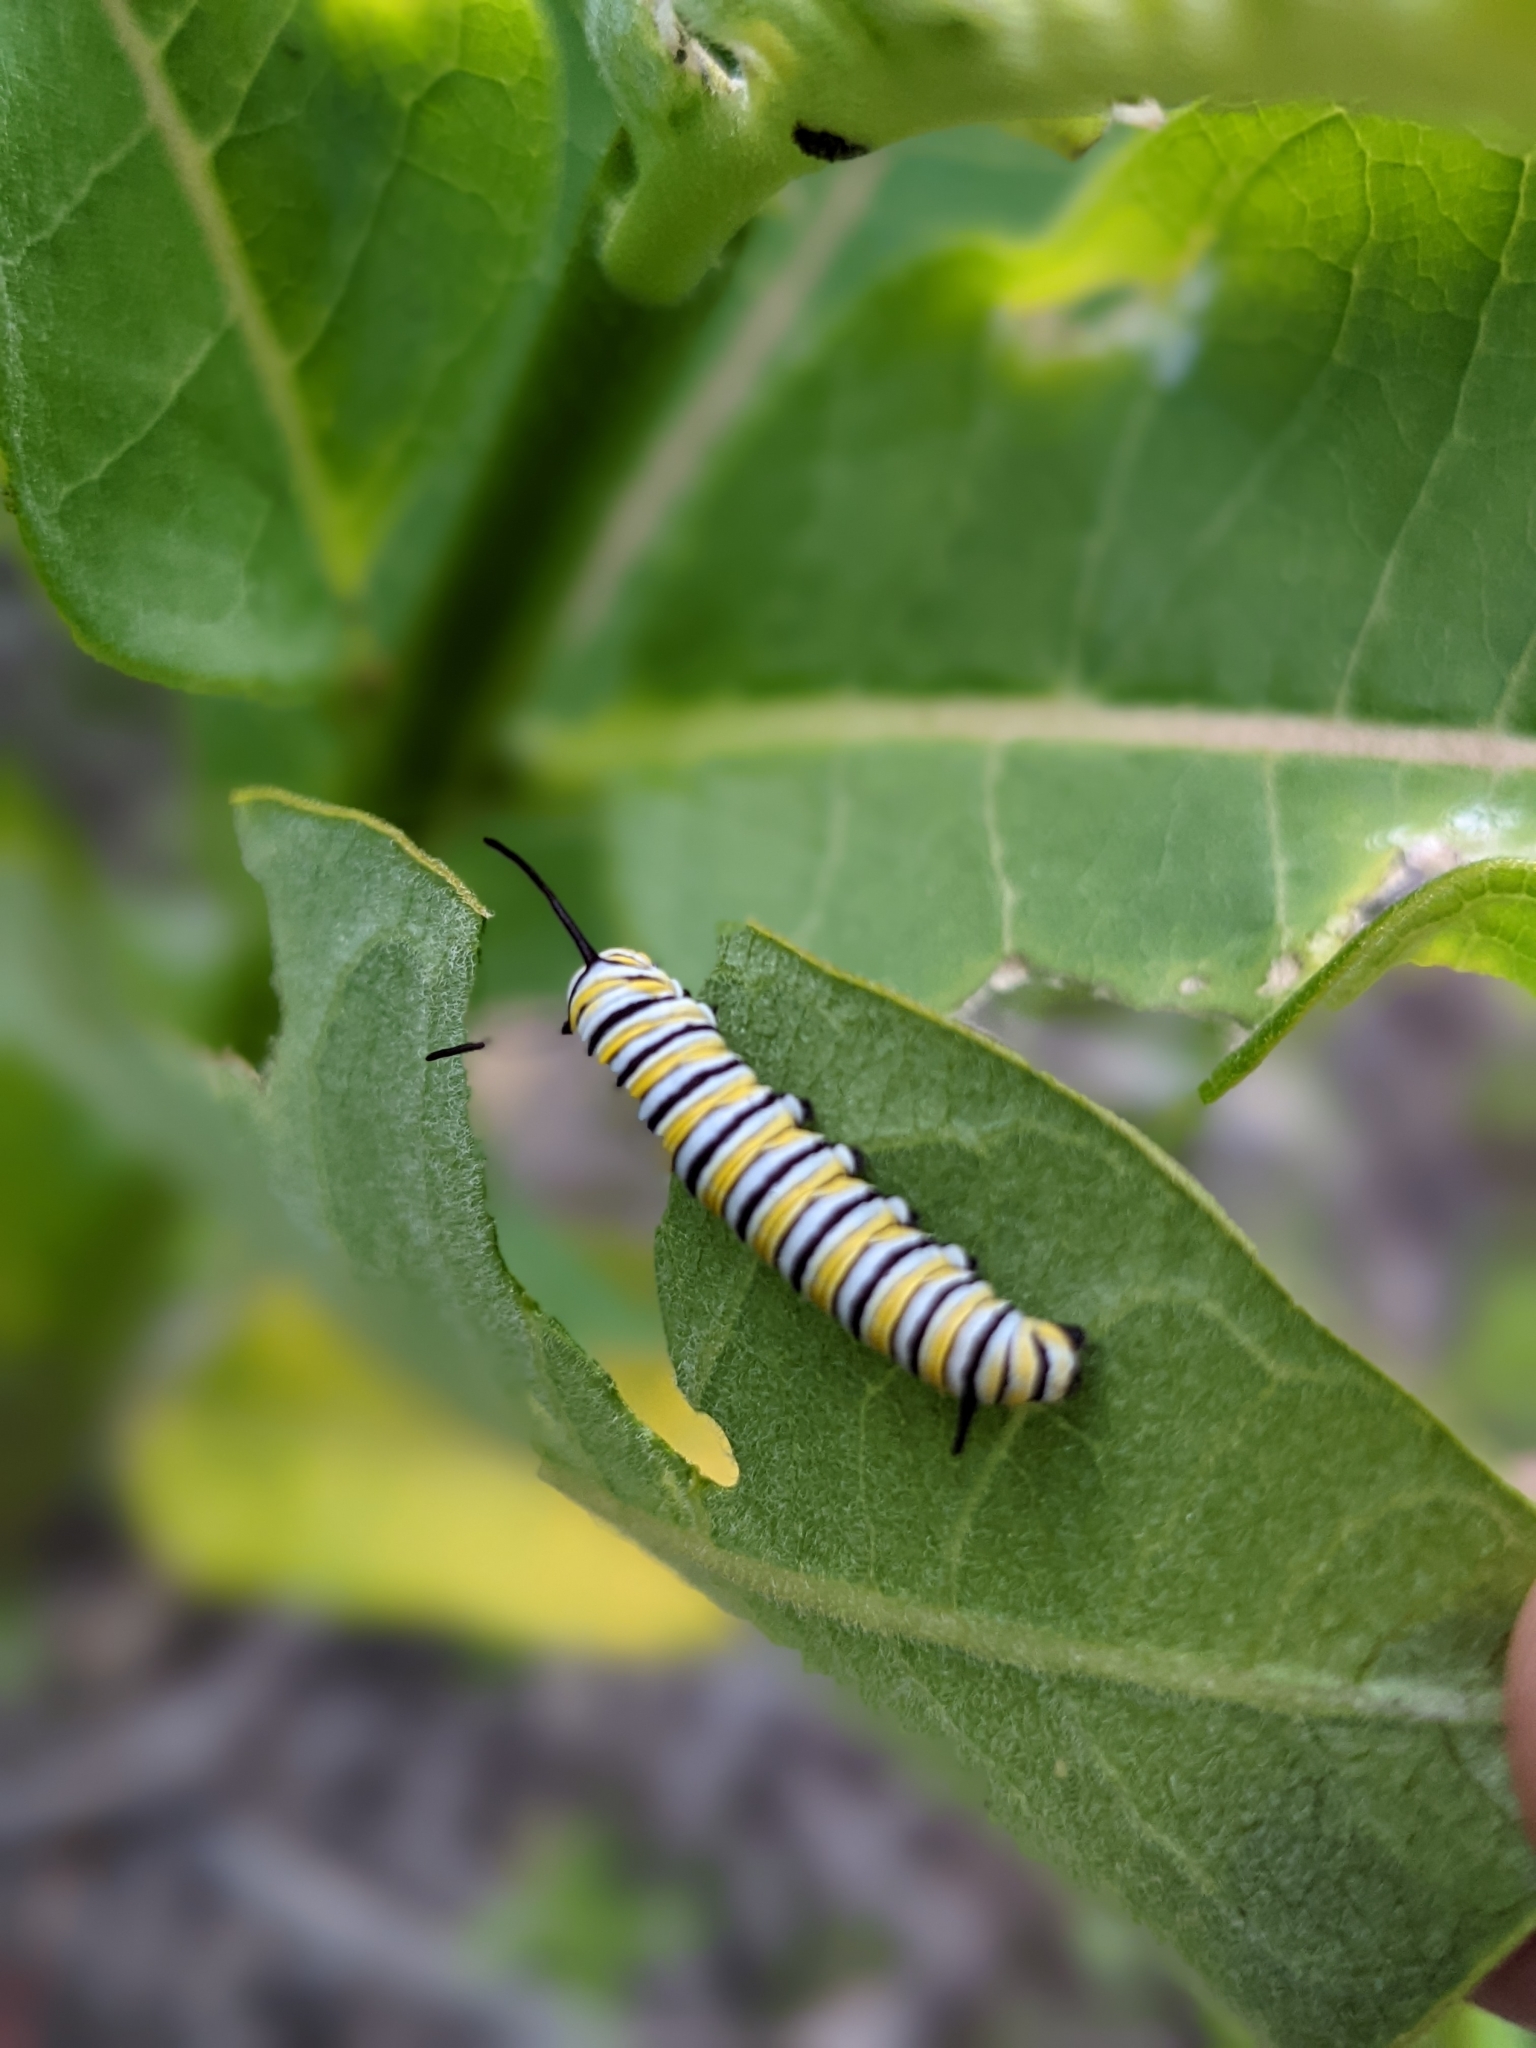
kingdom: Animalia
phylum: Arthropoda
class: Insecta
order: Lepidoptera
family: Nymphalidae
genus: Danaus
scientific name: Danaus plexippus
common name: Monarch
